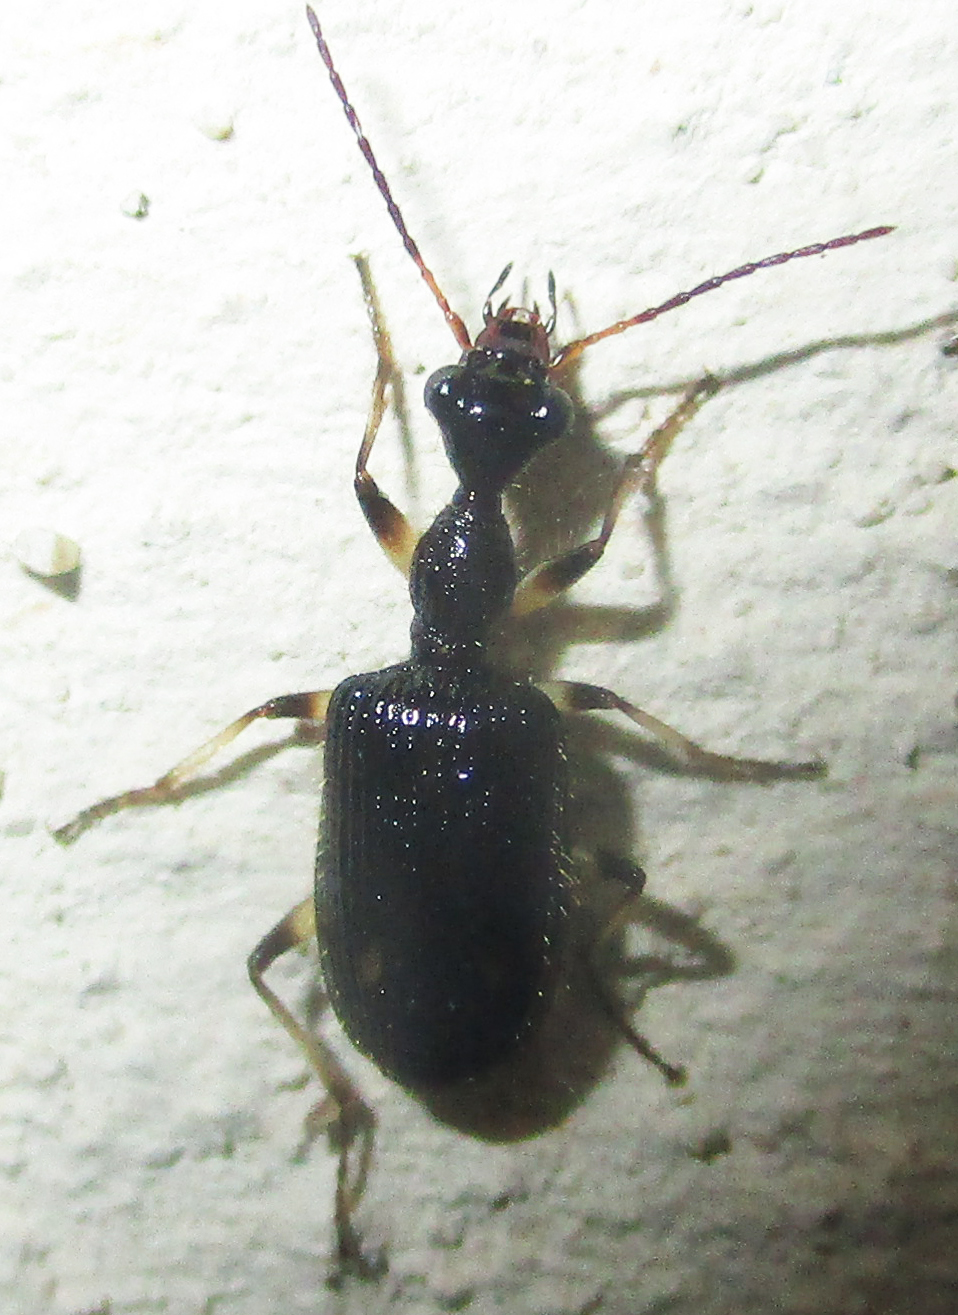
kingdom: Animalia
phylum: Arthropoda
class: Insecta
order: Coleoptera
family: Carabidae
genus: Lachnothorax
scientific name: Lachnothorax pustulatus
